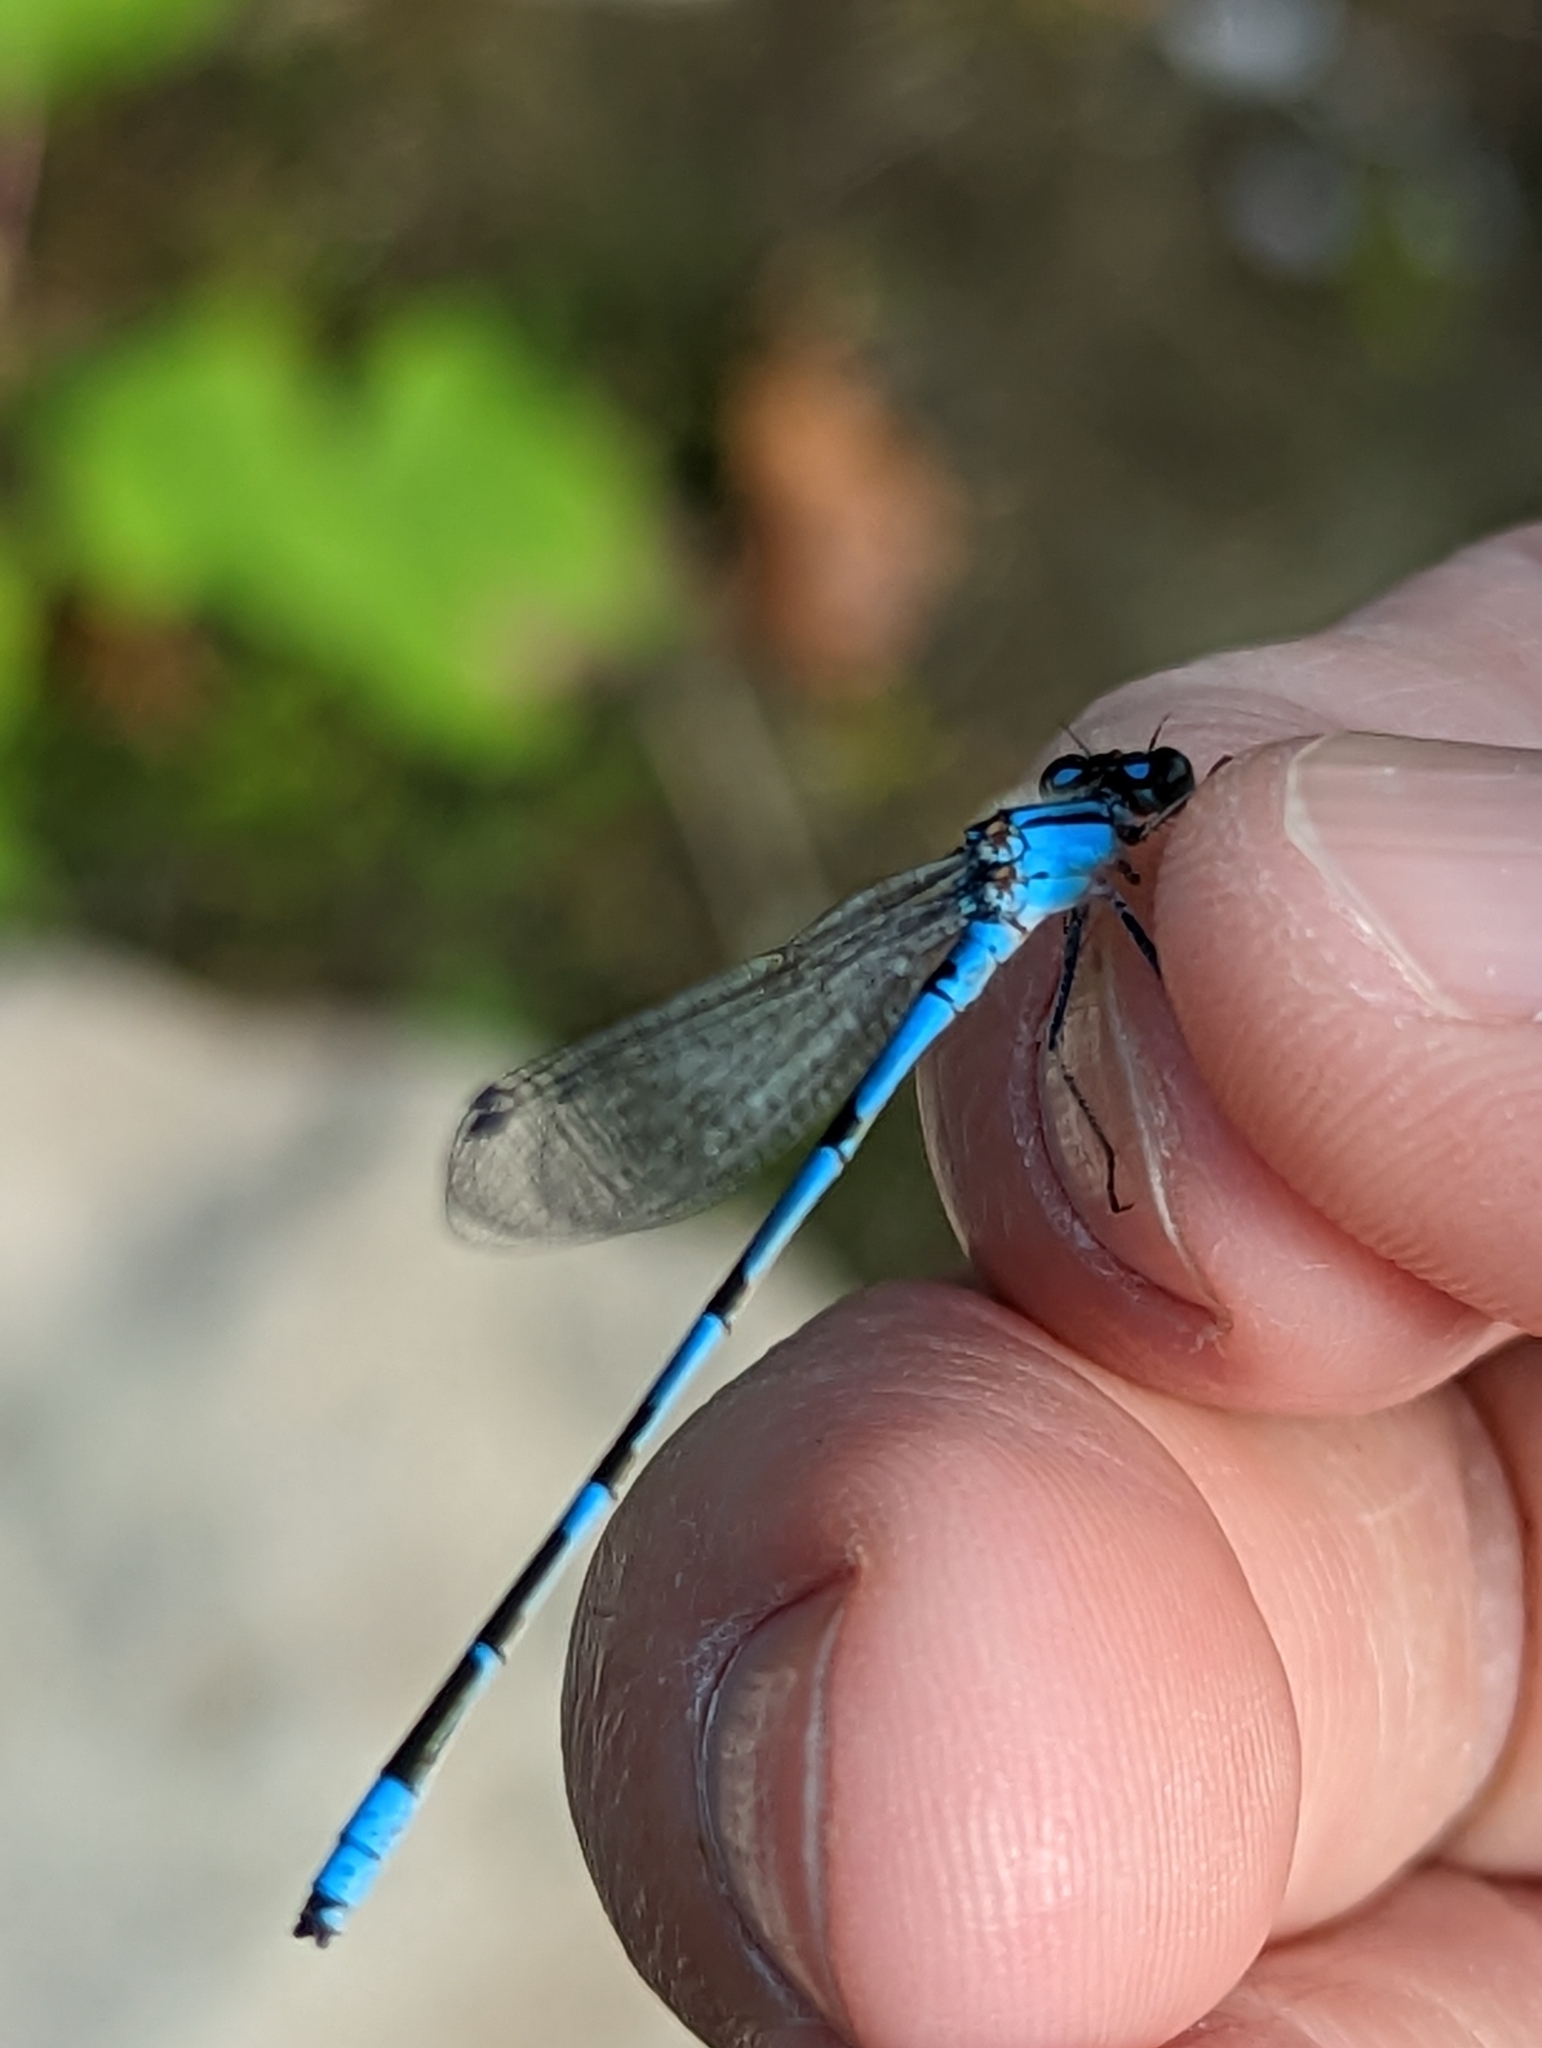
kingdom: Animalia
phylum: Arthropoda
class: Insecta
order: Odonata
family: Coenagrionidae
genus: Enallagma
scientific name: Enallagma civile
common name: Damselfly
